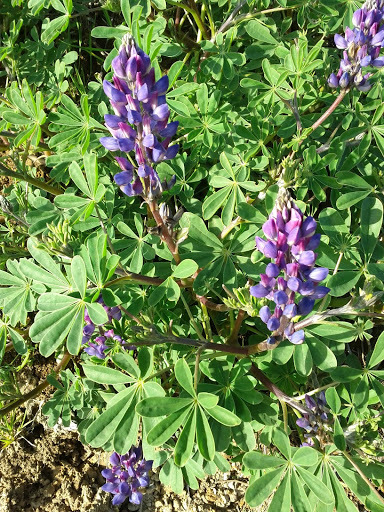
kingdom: Plantae
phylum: Tracheophyta
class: Magnoliopsida
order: Fabales
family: Fabaceae
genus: Lupinus
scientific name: Lupinus succulentus
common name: Arroyo lupine
